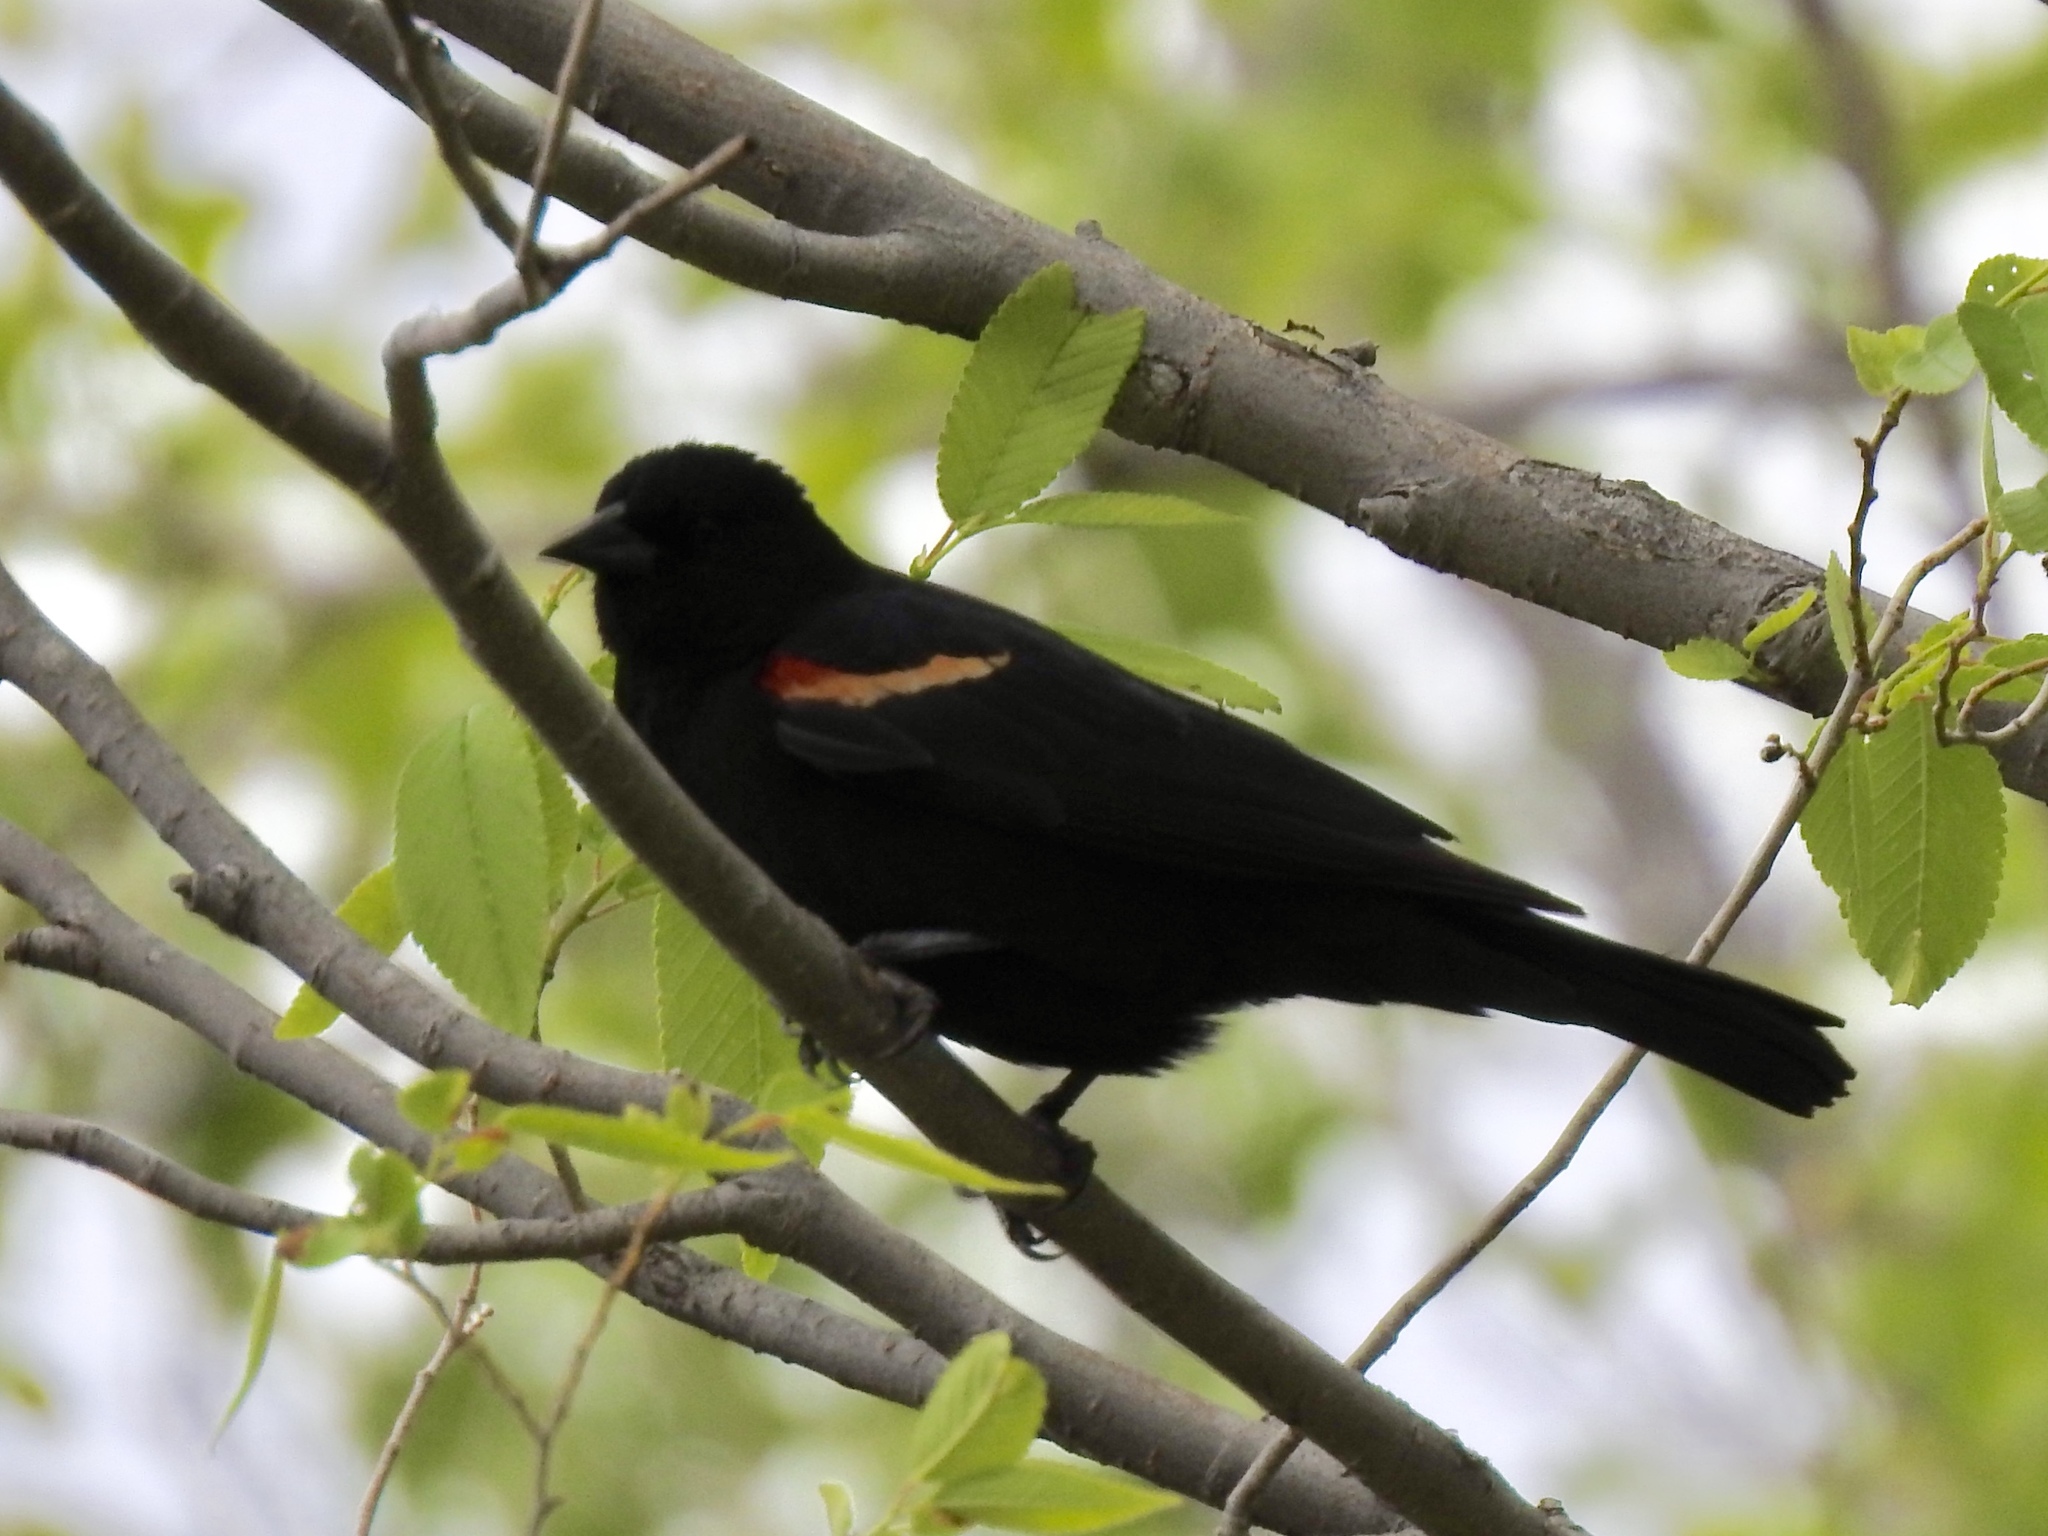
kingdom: Animalia
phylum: Chordata
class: Aves
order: Passeriformes
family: Icteridae
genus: Agelaius
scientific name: Agelaius phoeniceus
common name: Red-winged blackbird
